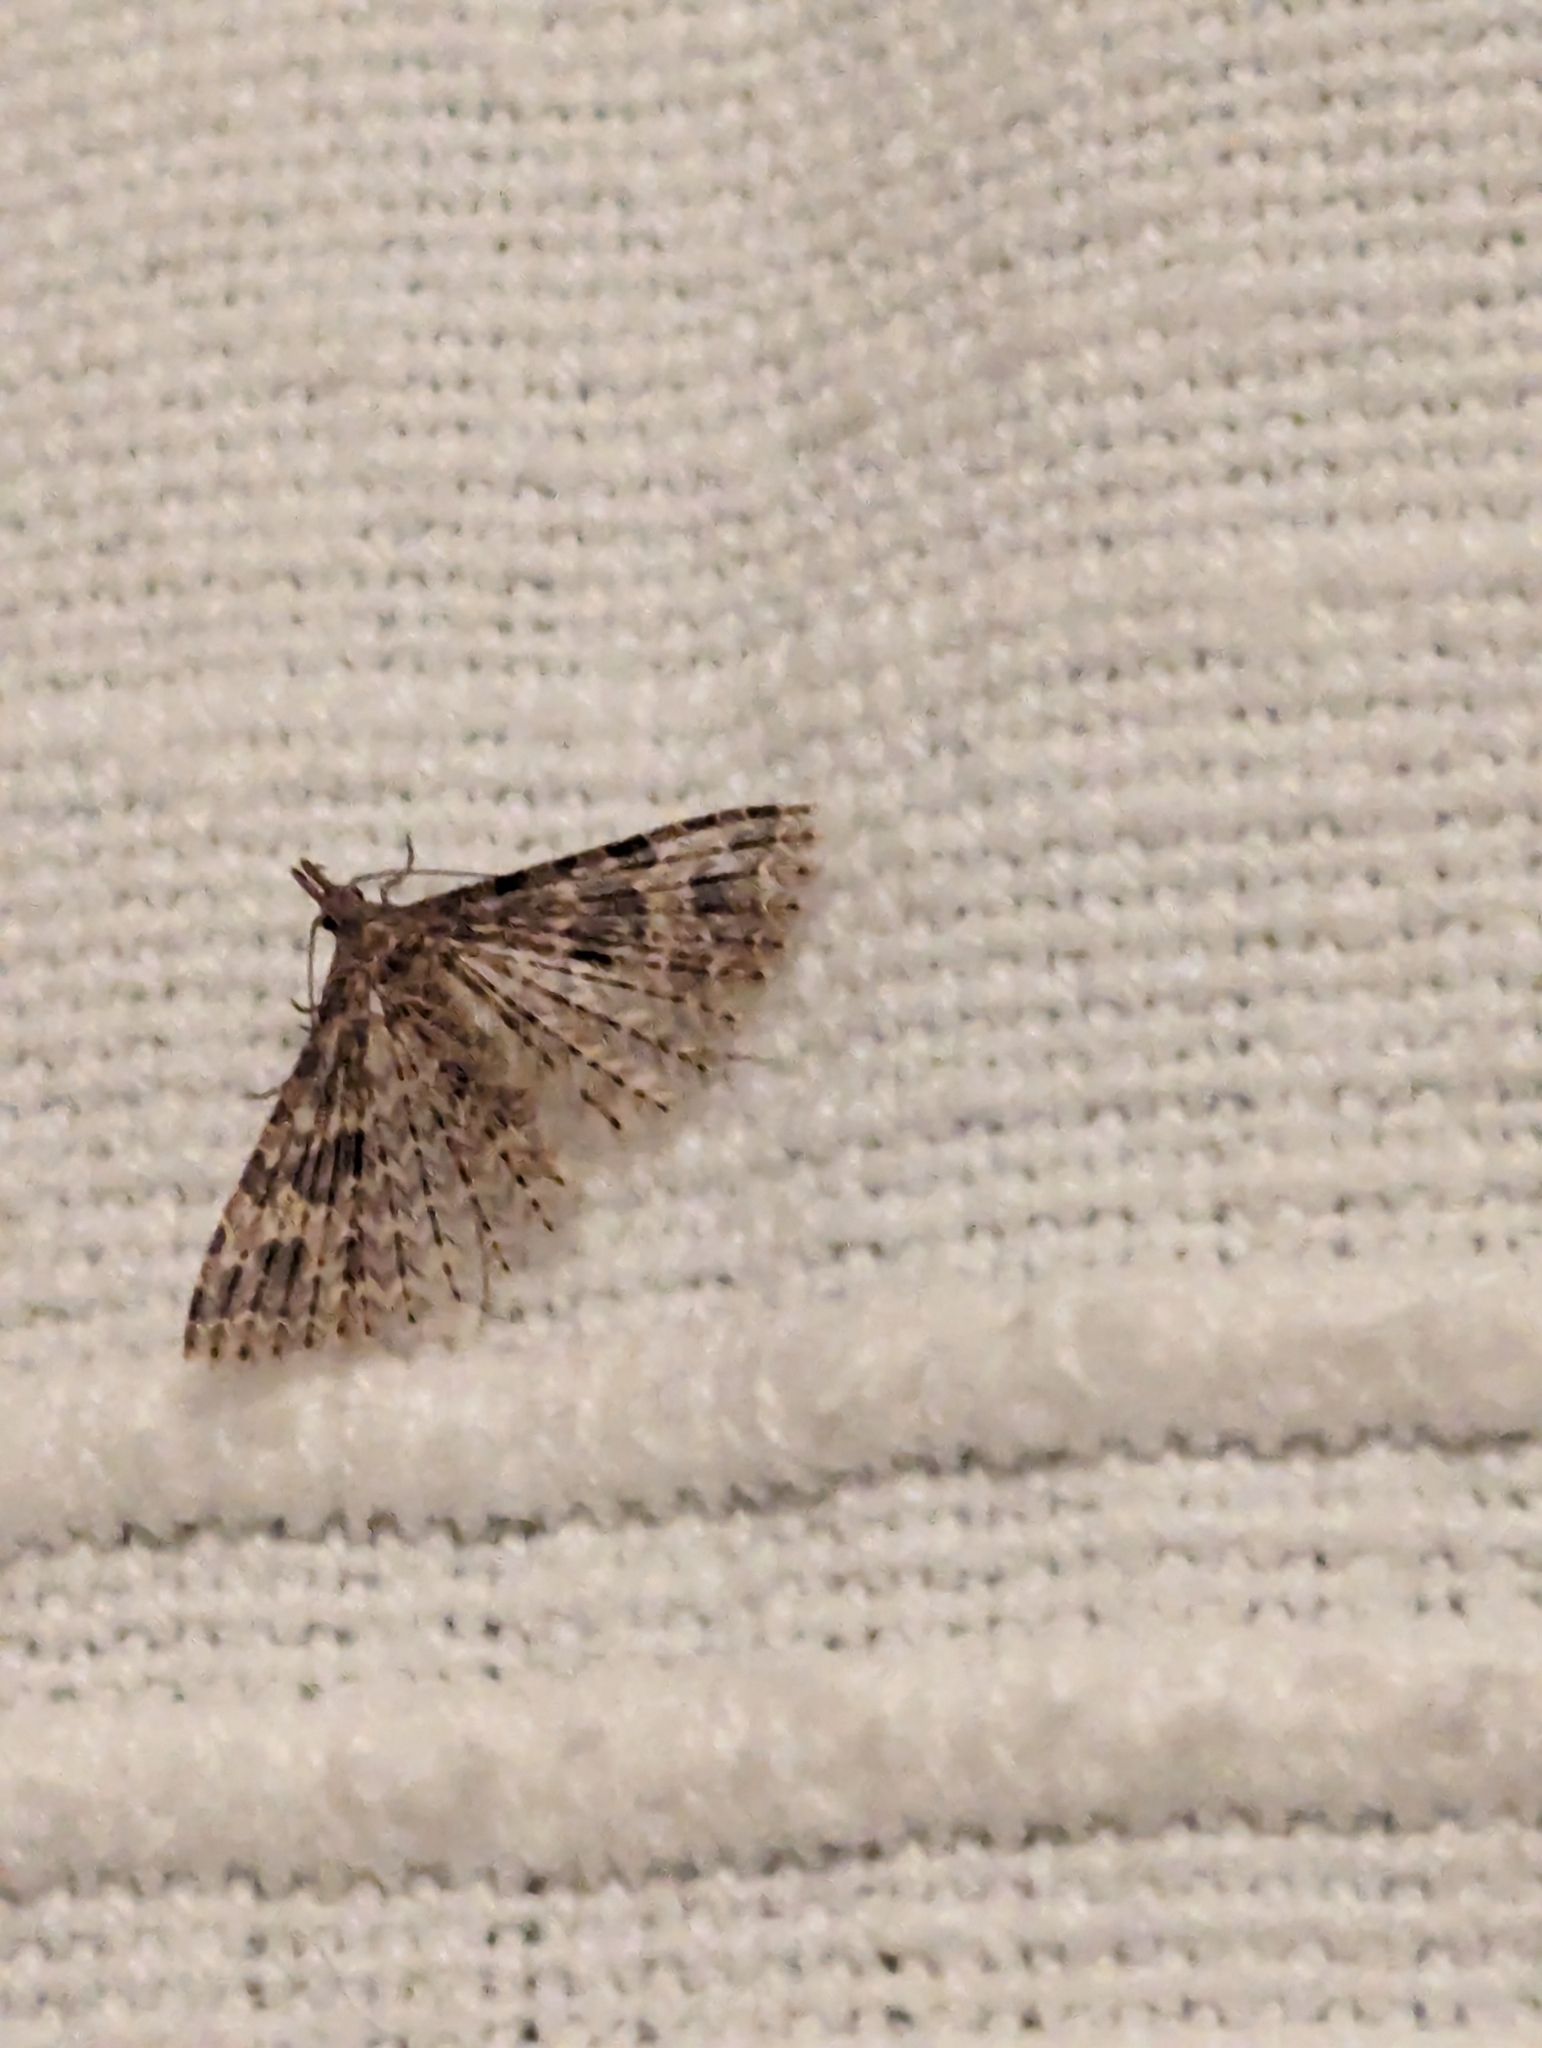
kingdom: Animalia
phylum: Arthropoda
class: Insecta
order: Lepidoptera
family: Alucitidae
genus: Alucita
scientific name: Alucita hexadactyla
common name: Twenty-plume moth
